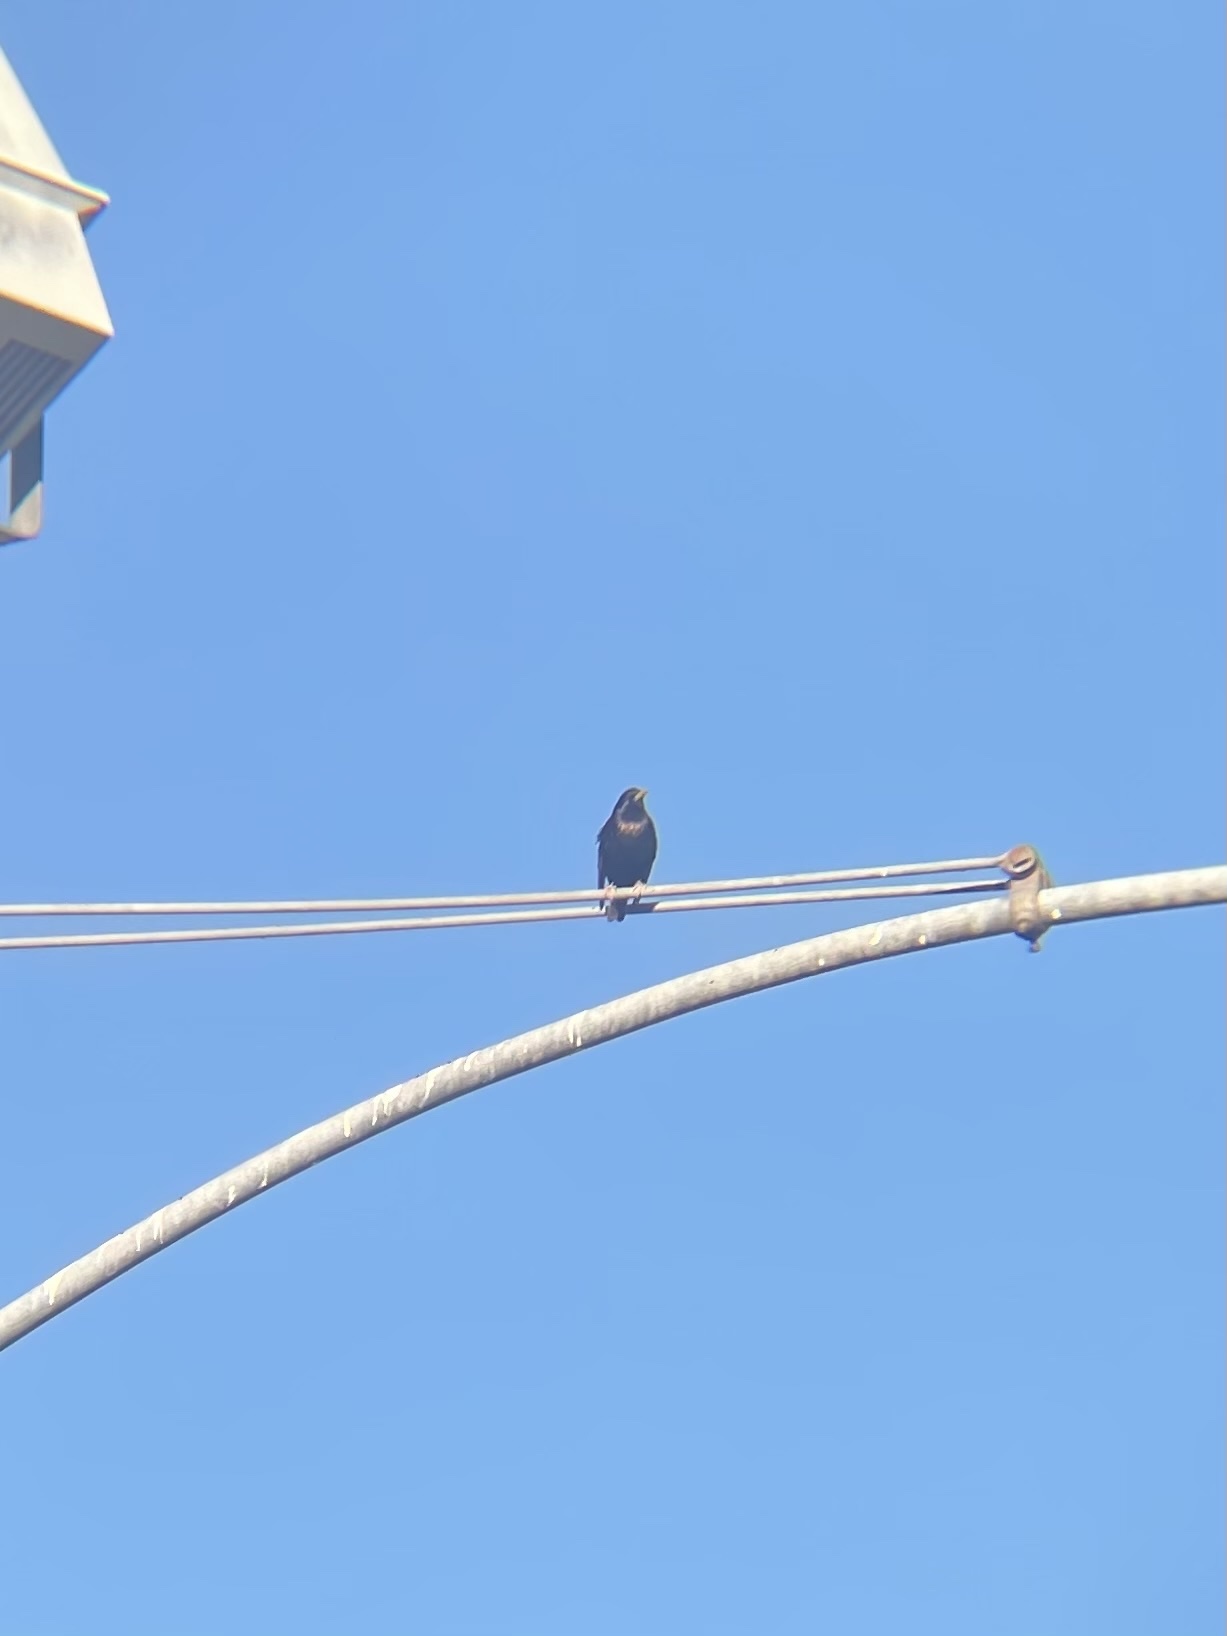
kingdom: Animalia
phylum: Chordata
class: Aves
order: Passeriformes
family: Sturnidae
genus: Sturnus
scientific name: Sturnus vulgaris
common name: Common starling
